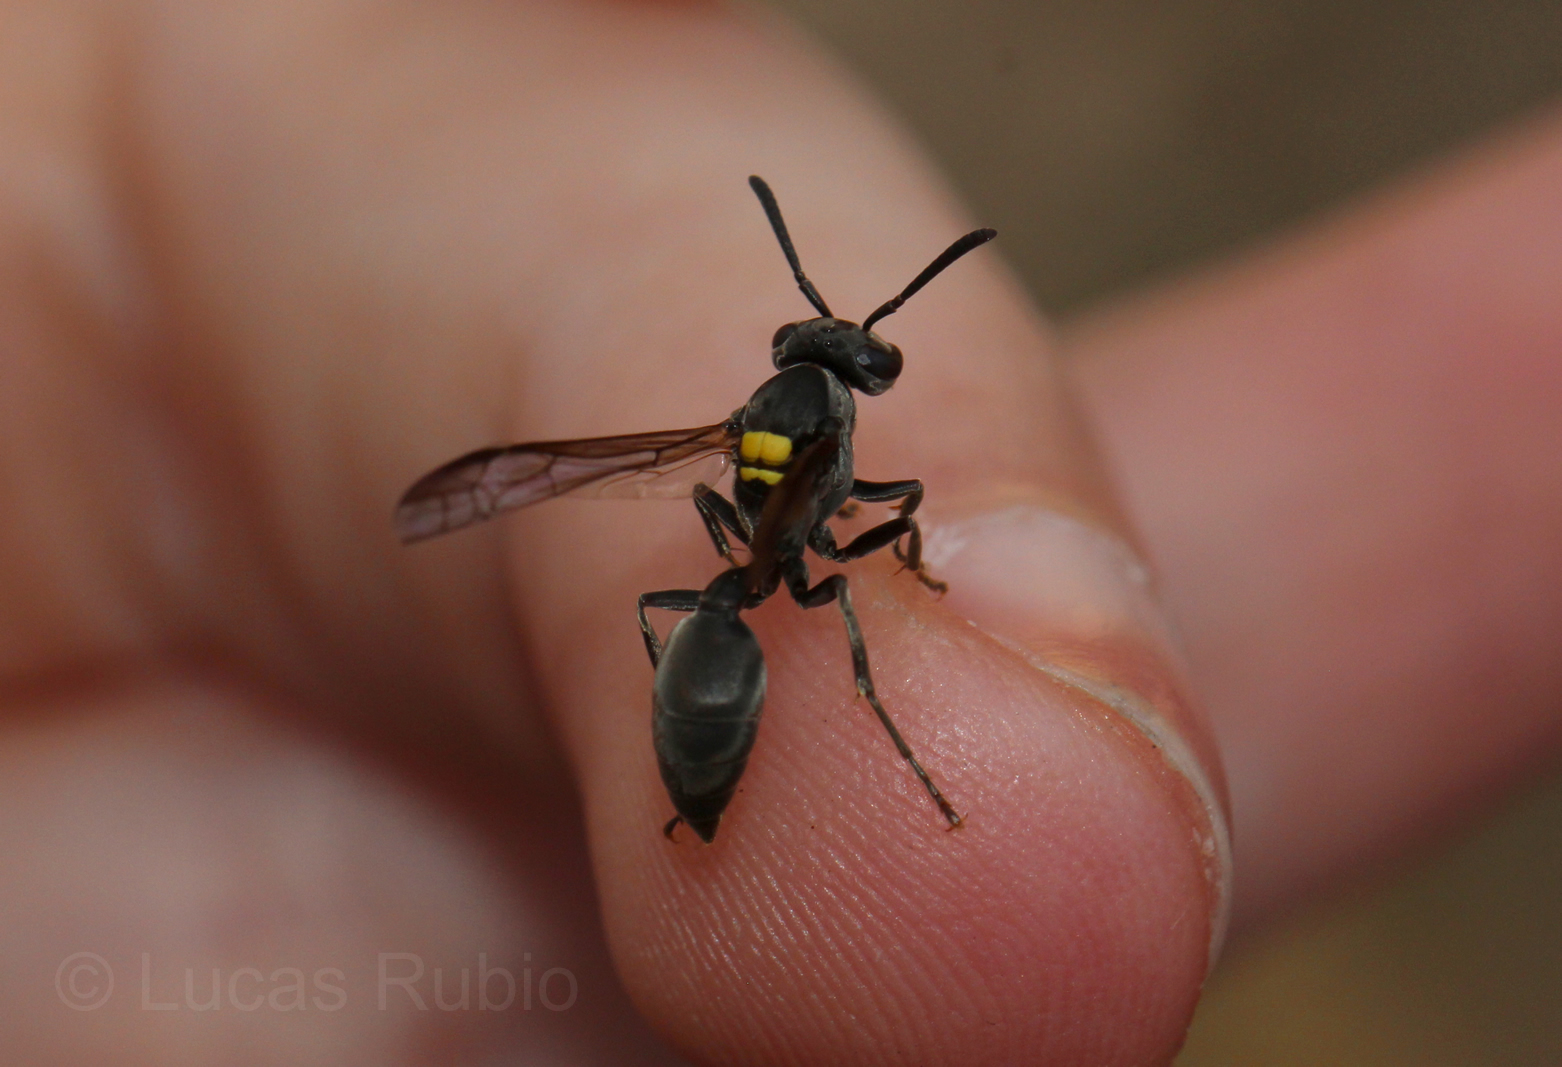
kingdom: Animalia
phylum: Arthropoda
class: Insecta
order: Hymenoptera
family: Eumenidae
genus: Polybia
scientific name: Polybia scutellaris
